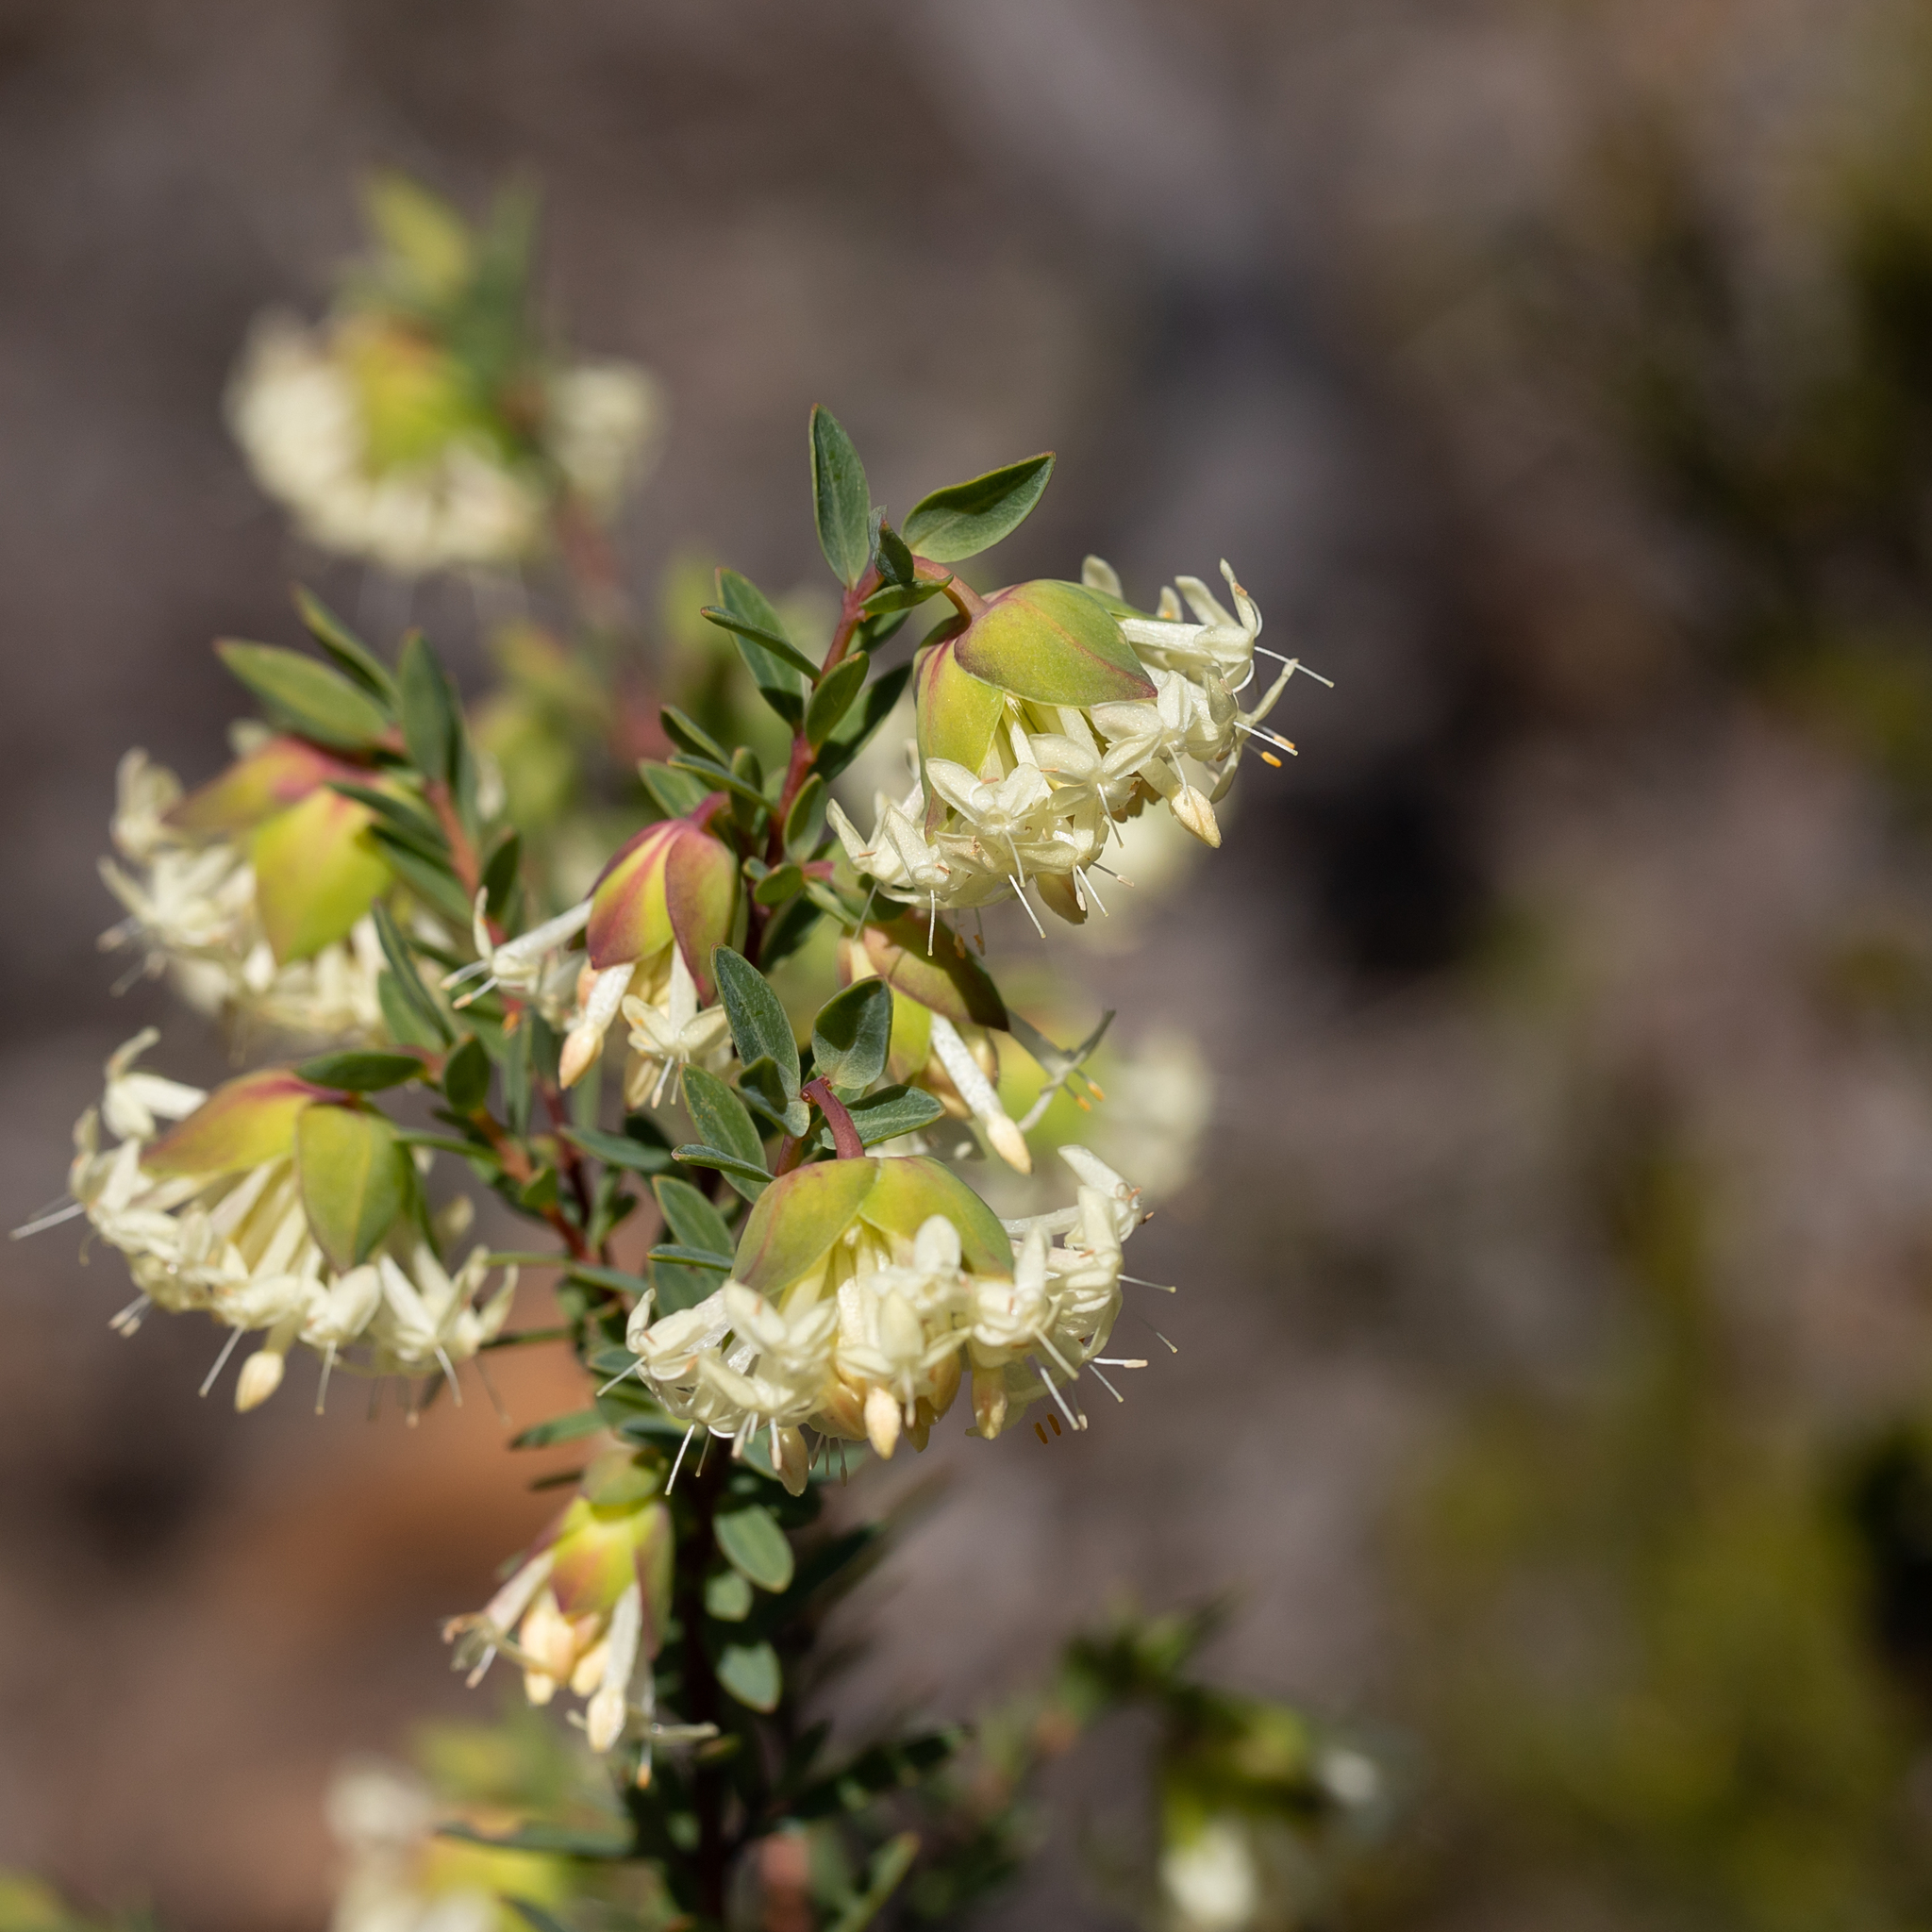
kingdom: Plantae
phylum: Tracheophyta
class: Magnoliopsida
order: Malvales
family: Thymelaeaceae
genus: Pimelea
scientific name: Pimelea linifolia
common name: Queen-of-the-bush
